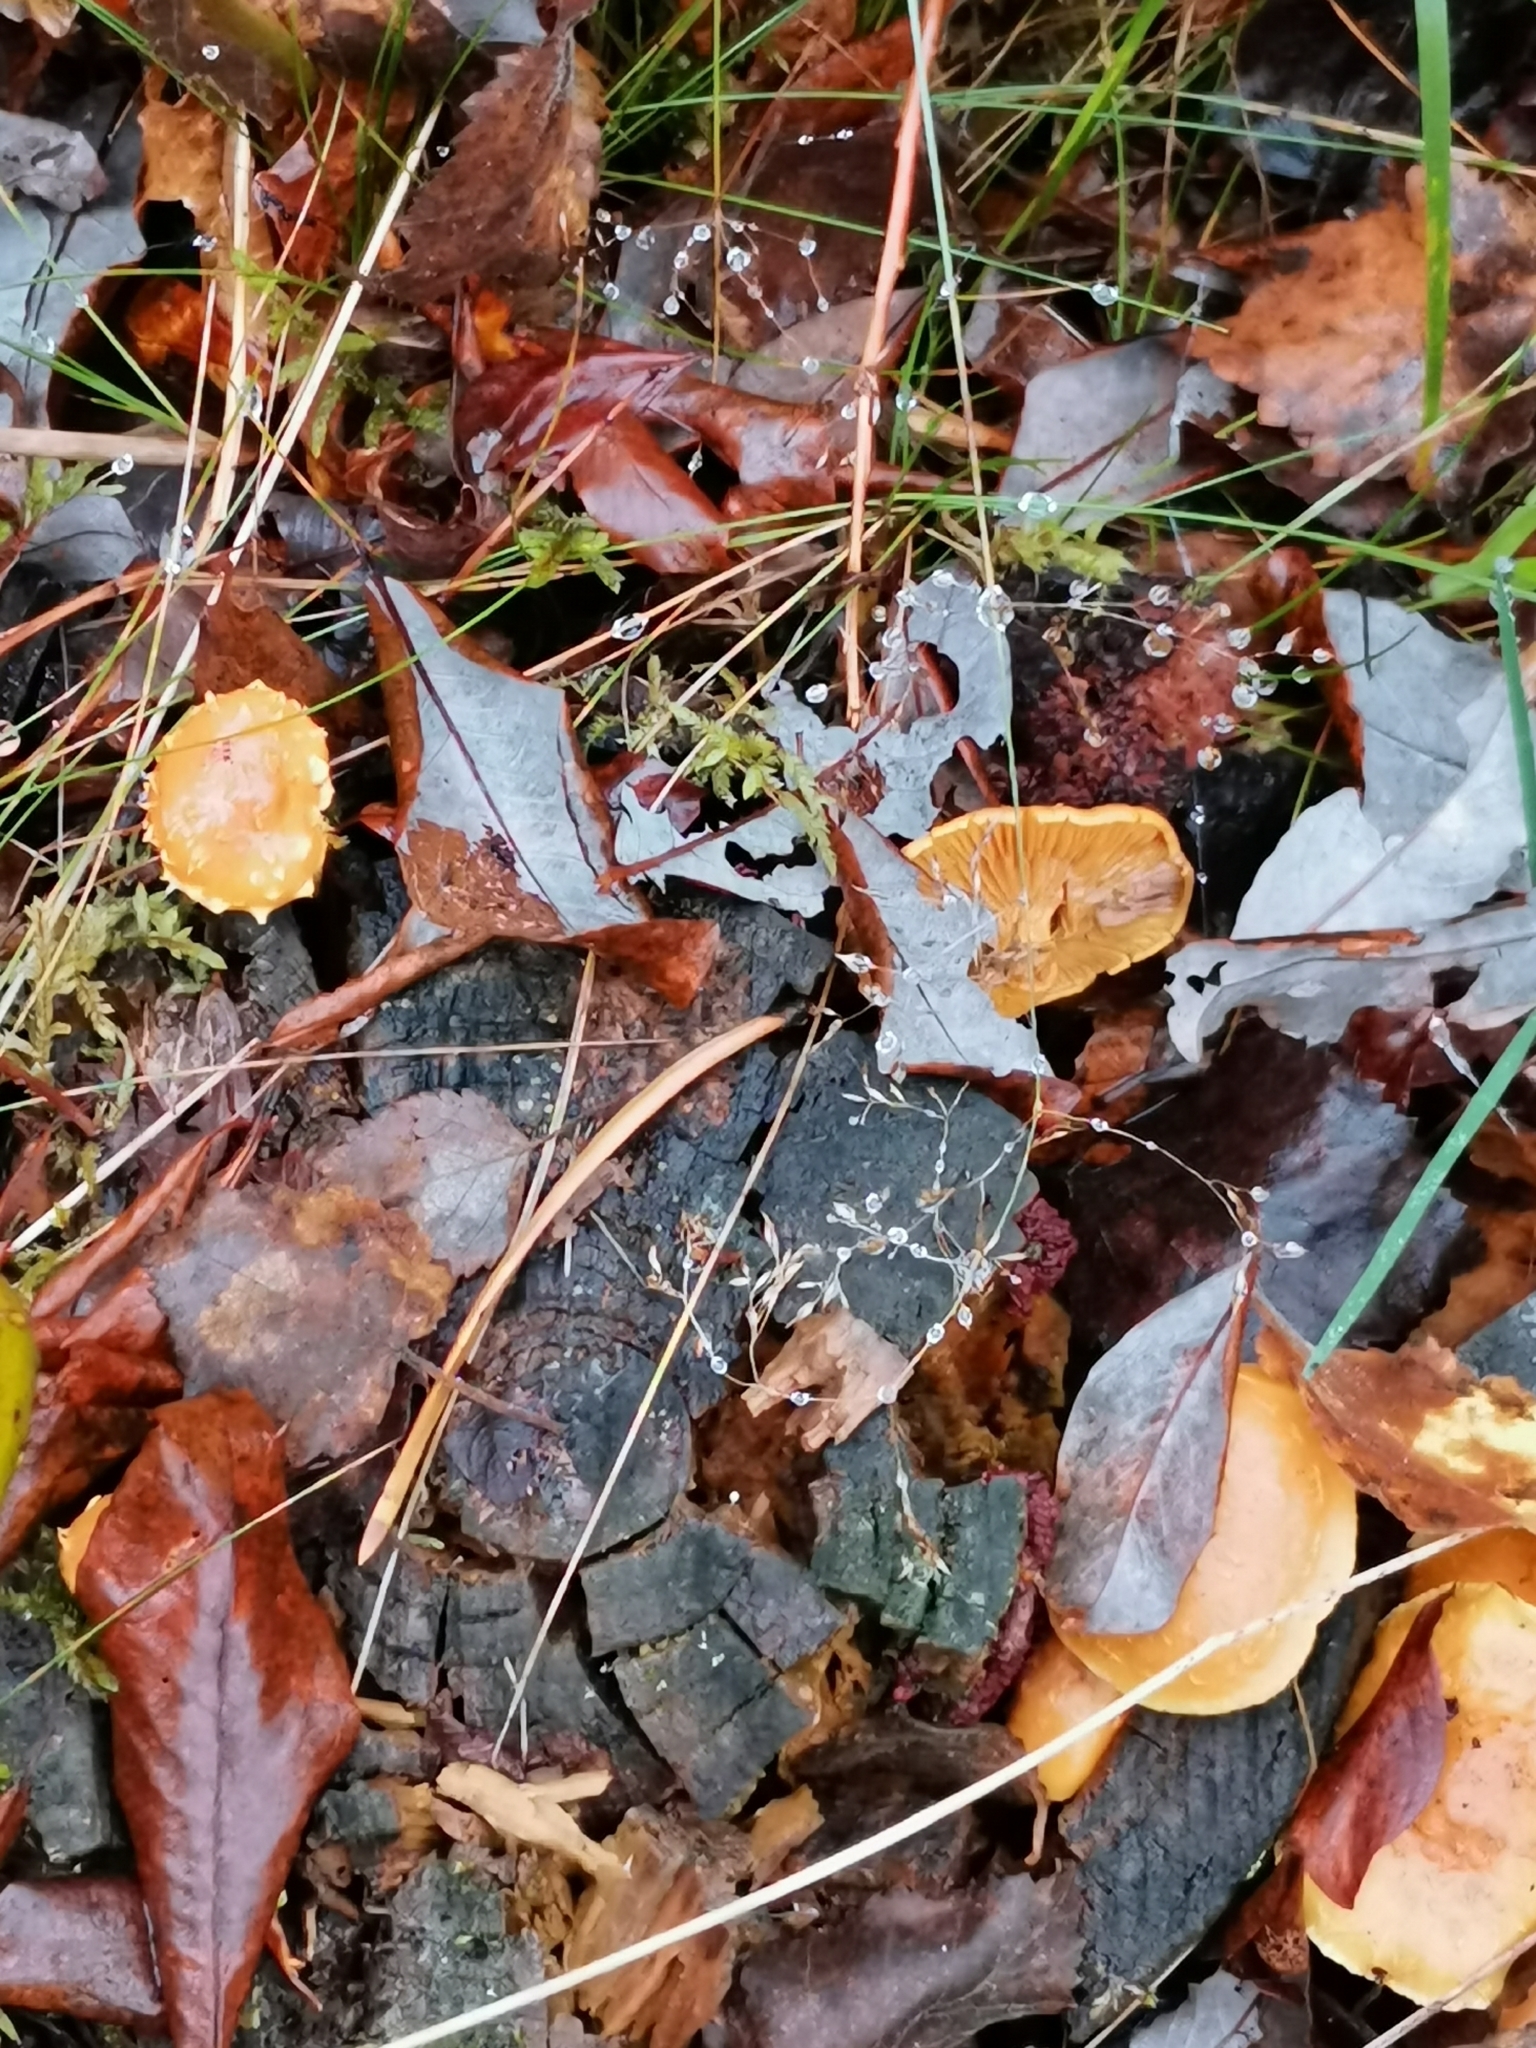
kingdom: Fungi
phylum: Basidiomycota
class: Agaricomycetes
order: Agaricales
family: Strophariaceae
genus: Pholiota
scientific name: Pholiota flammans
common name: Flaming scalycap
